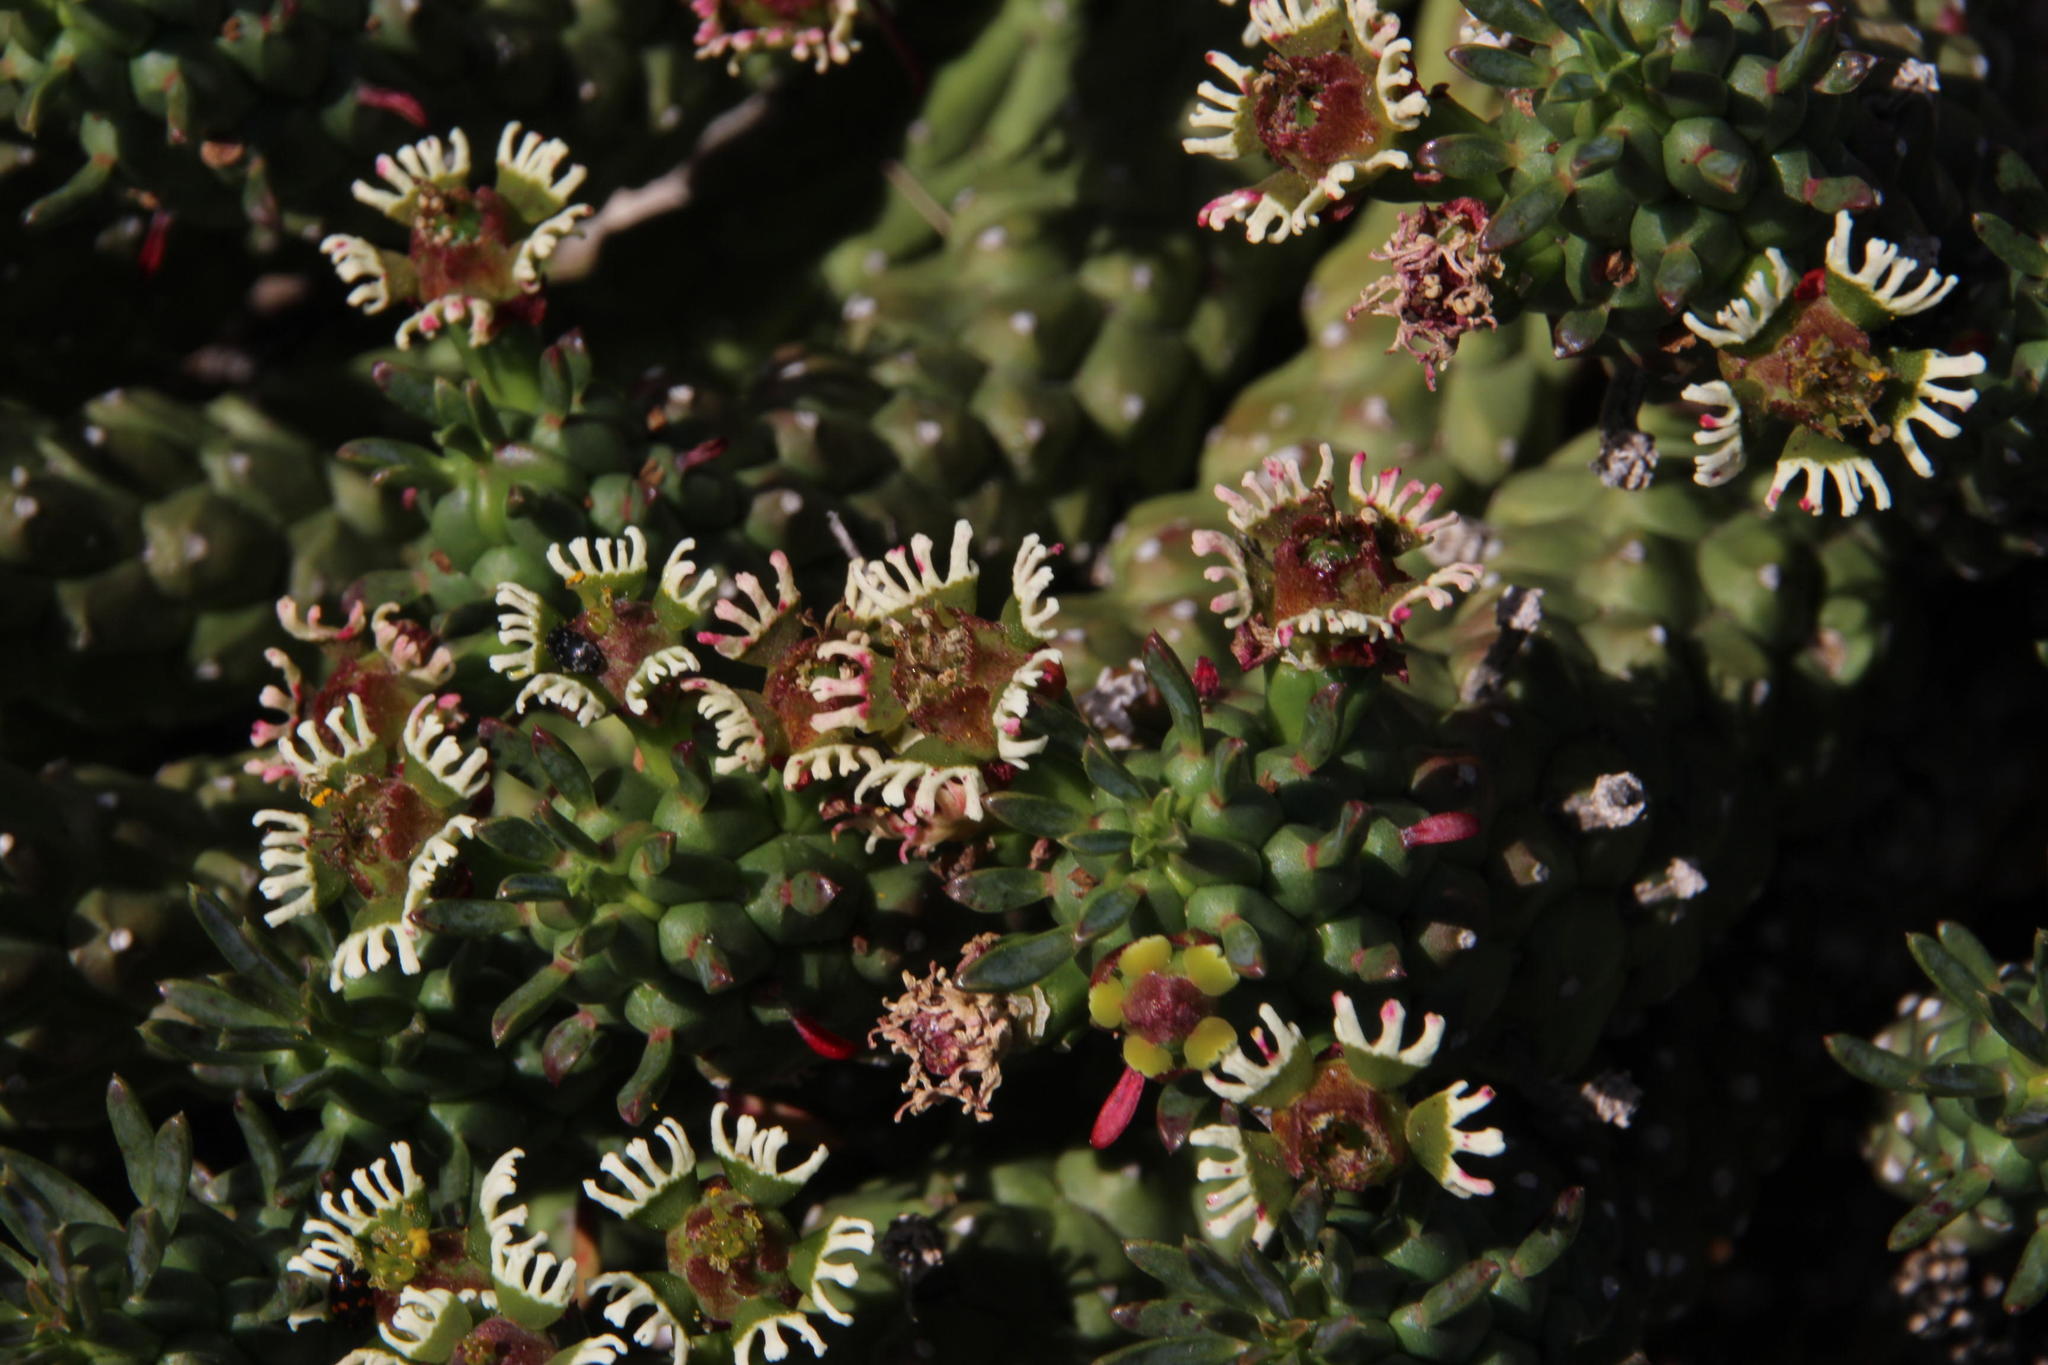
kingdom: Plantae
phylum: Tracheophyta
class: Magnoliopsida
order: Malpighiales
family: Euphorbiaceae
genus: Euphorbia
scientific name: Euphorbia caput-medusae
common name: Medusa's-head
